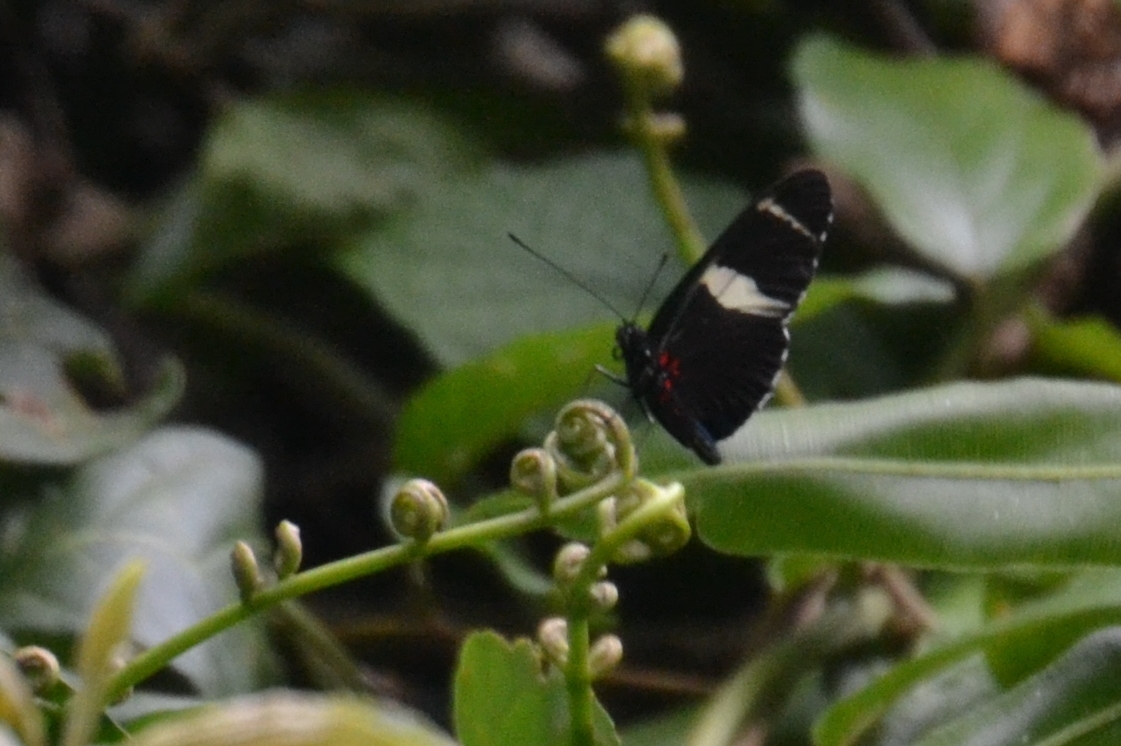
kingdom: Animalia
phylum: Arthropoda
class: Insecta
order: Lepidoptera
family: Nymphalidae
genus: Heliconius
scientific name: Heliconius sara
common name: Sara longwing
